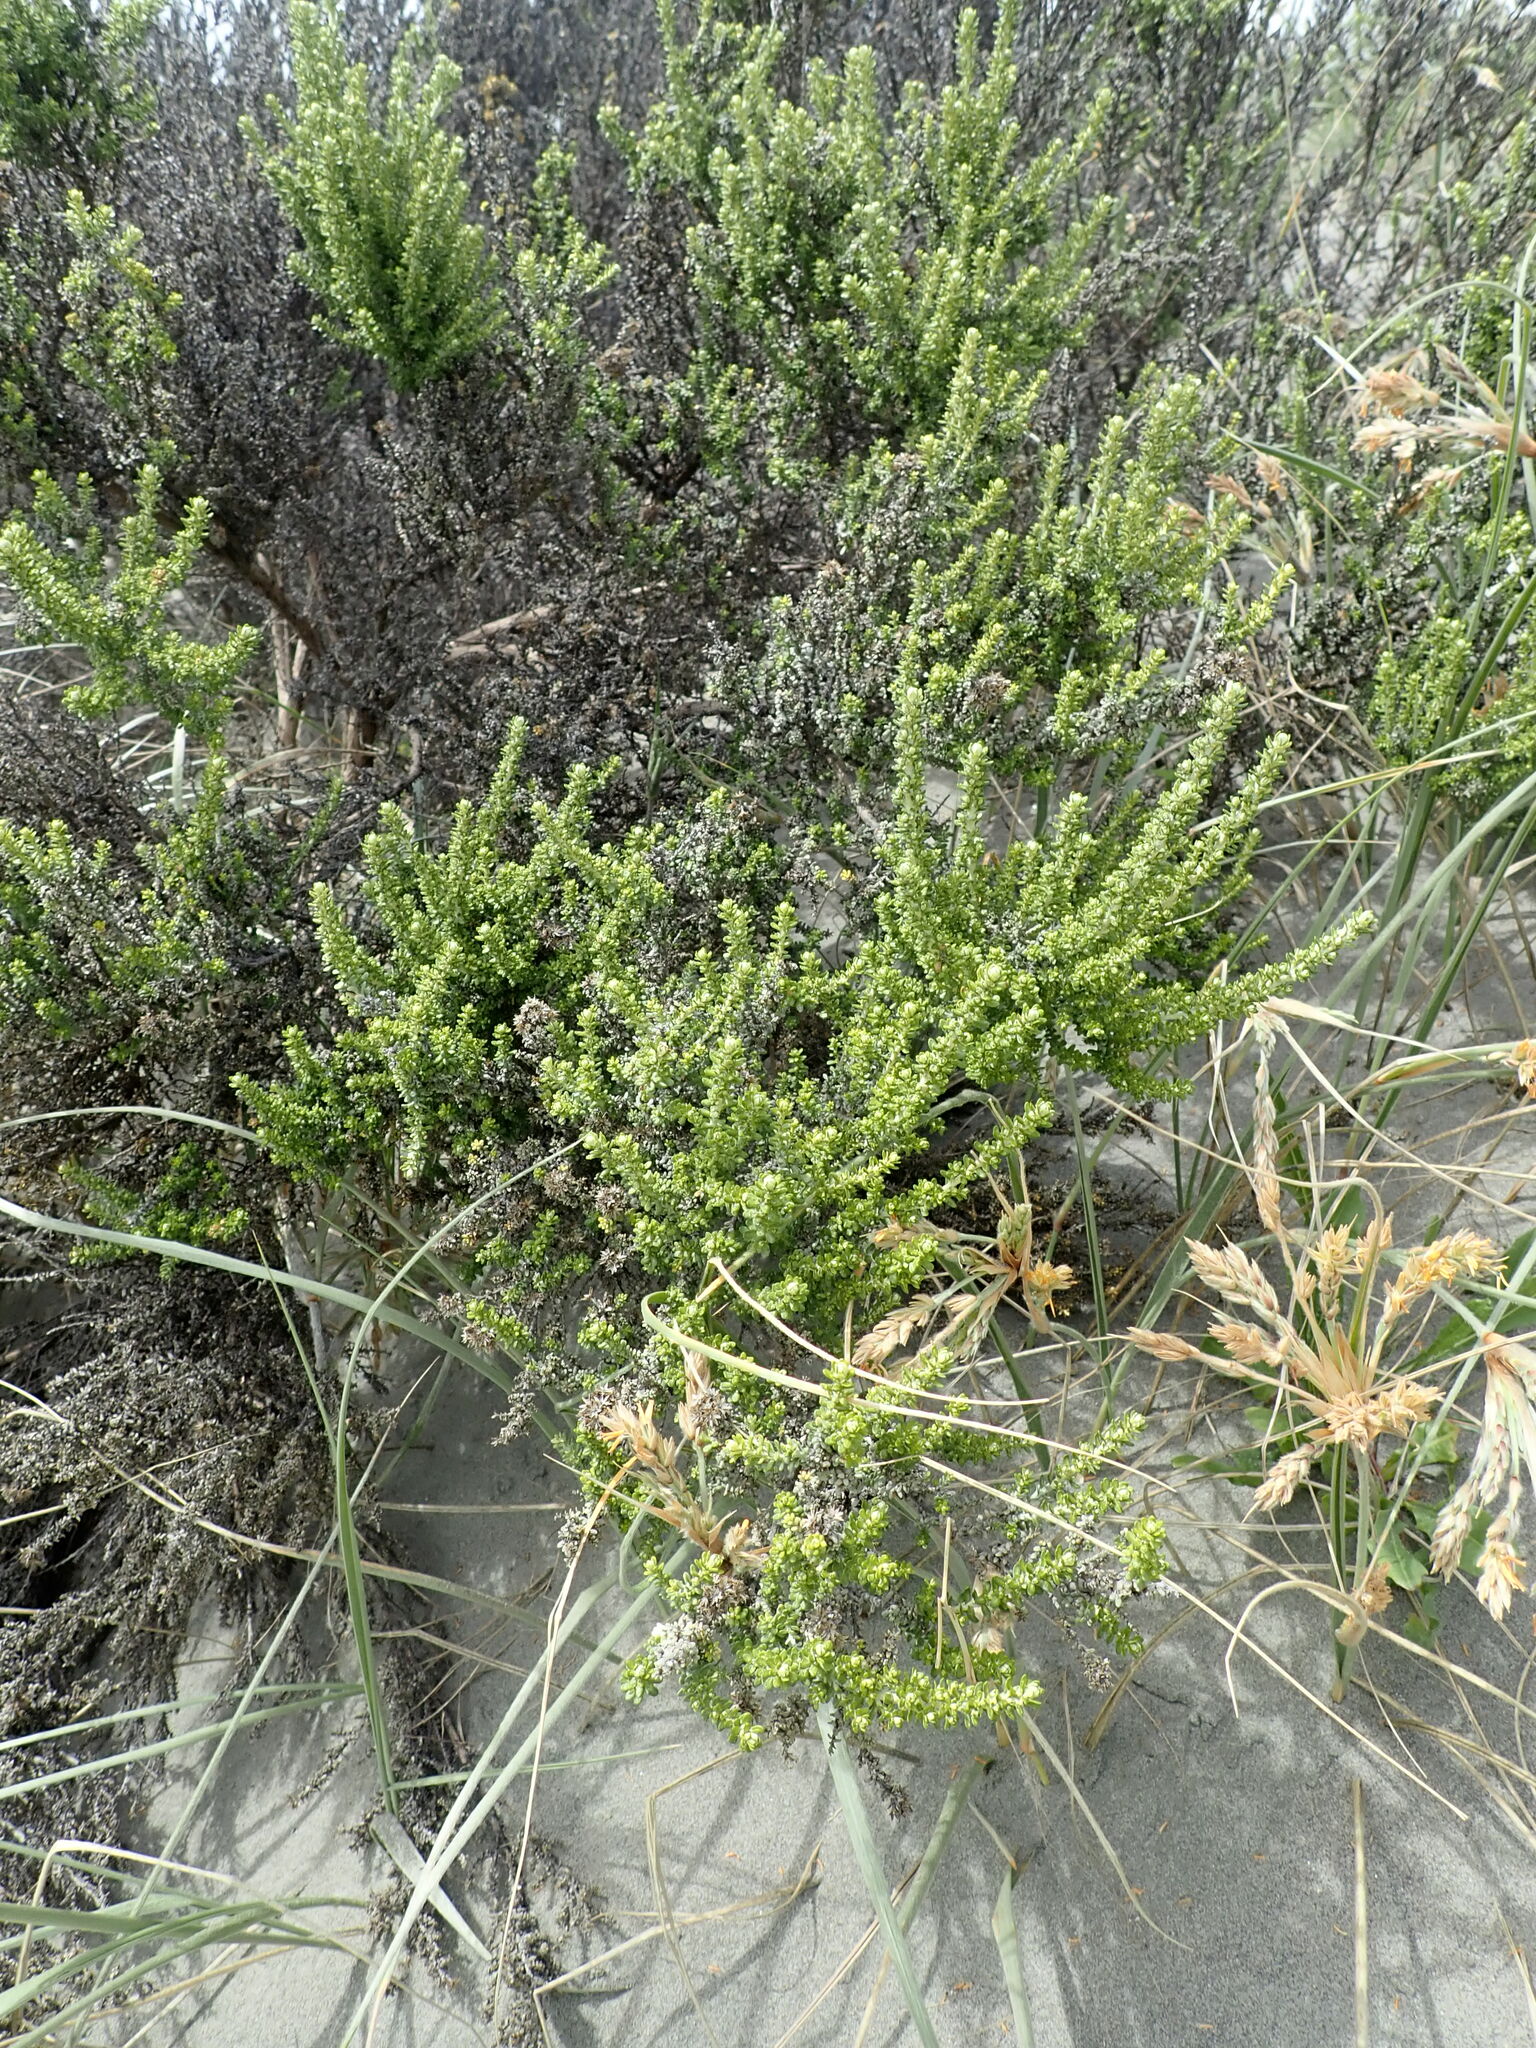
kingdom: Plantae
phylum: Tracheophyta
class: Magnoliopsida
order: Asterales
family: Asteraceae
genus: Ozothamnus
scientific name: Ozothamnus leptophyllus
